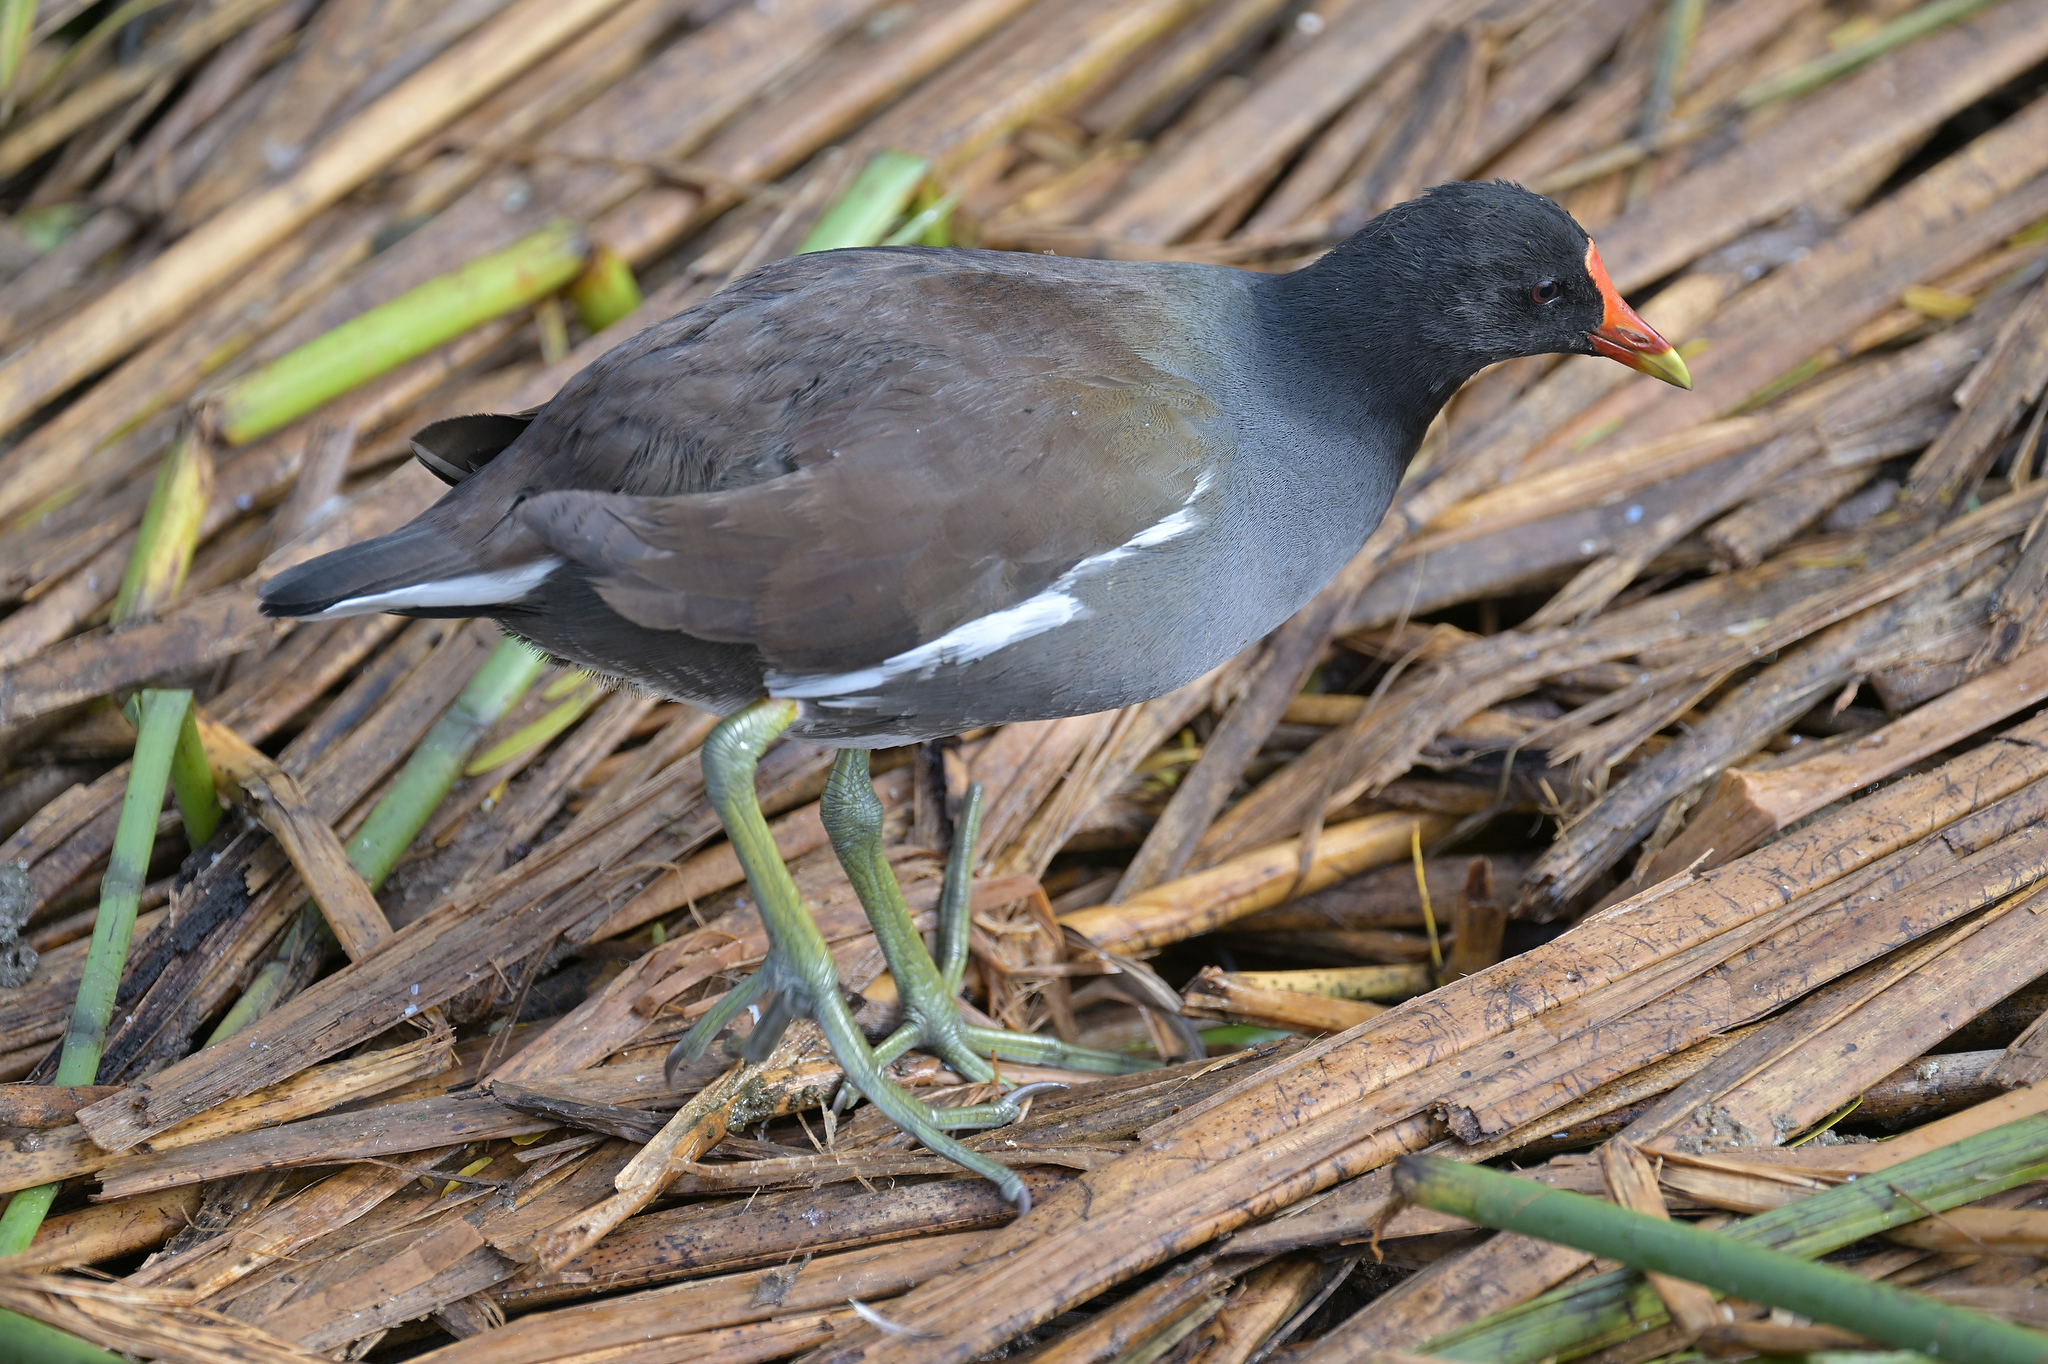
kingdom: Animalia
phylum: Chordata
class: Aves
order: Gruiformes
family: Rallidae
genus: Gallinula
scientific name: Gallinula chloropus
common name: Common moorhen
